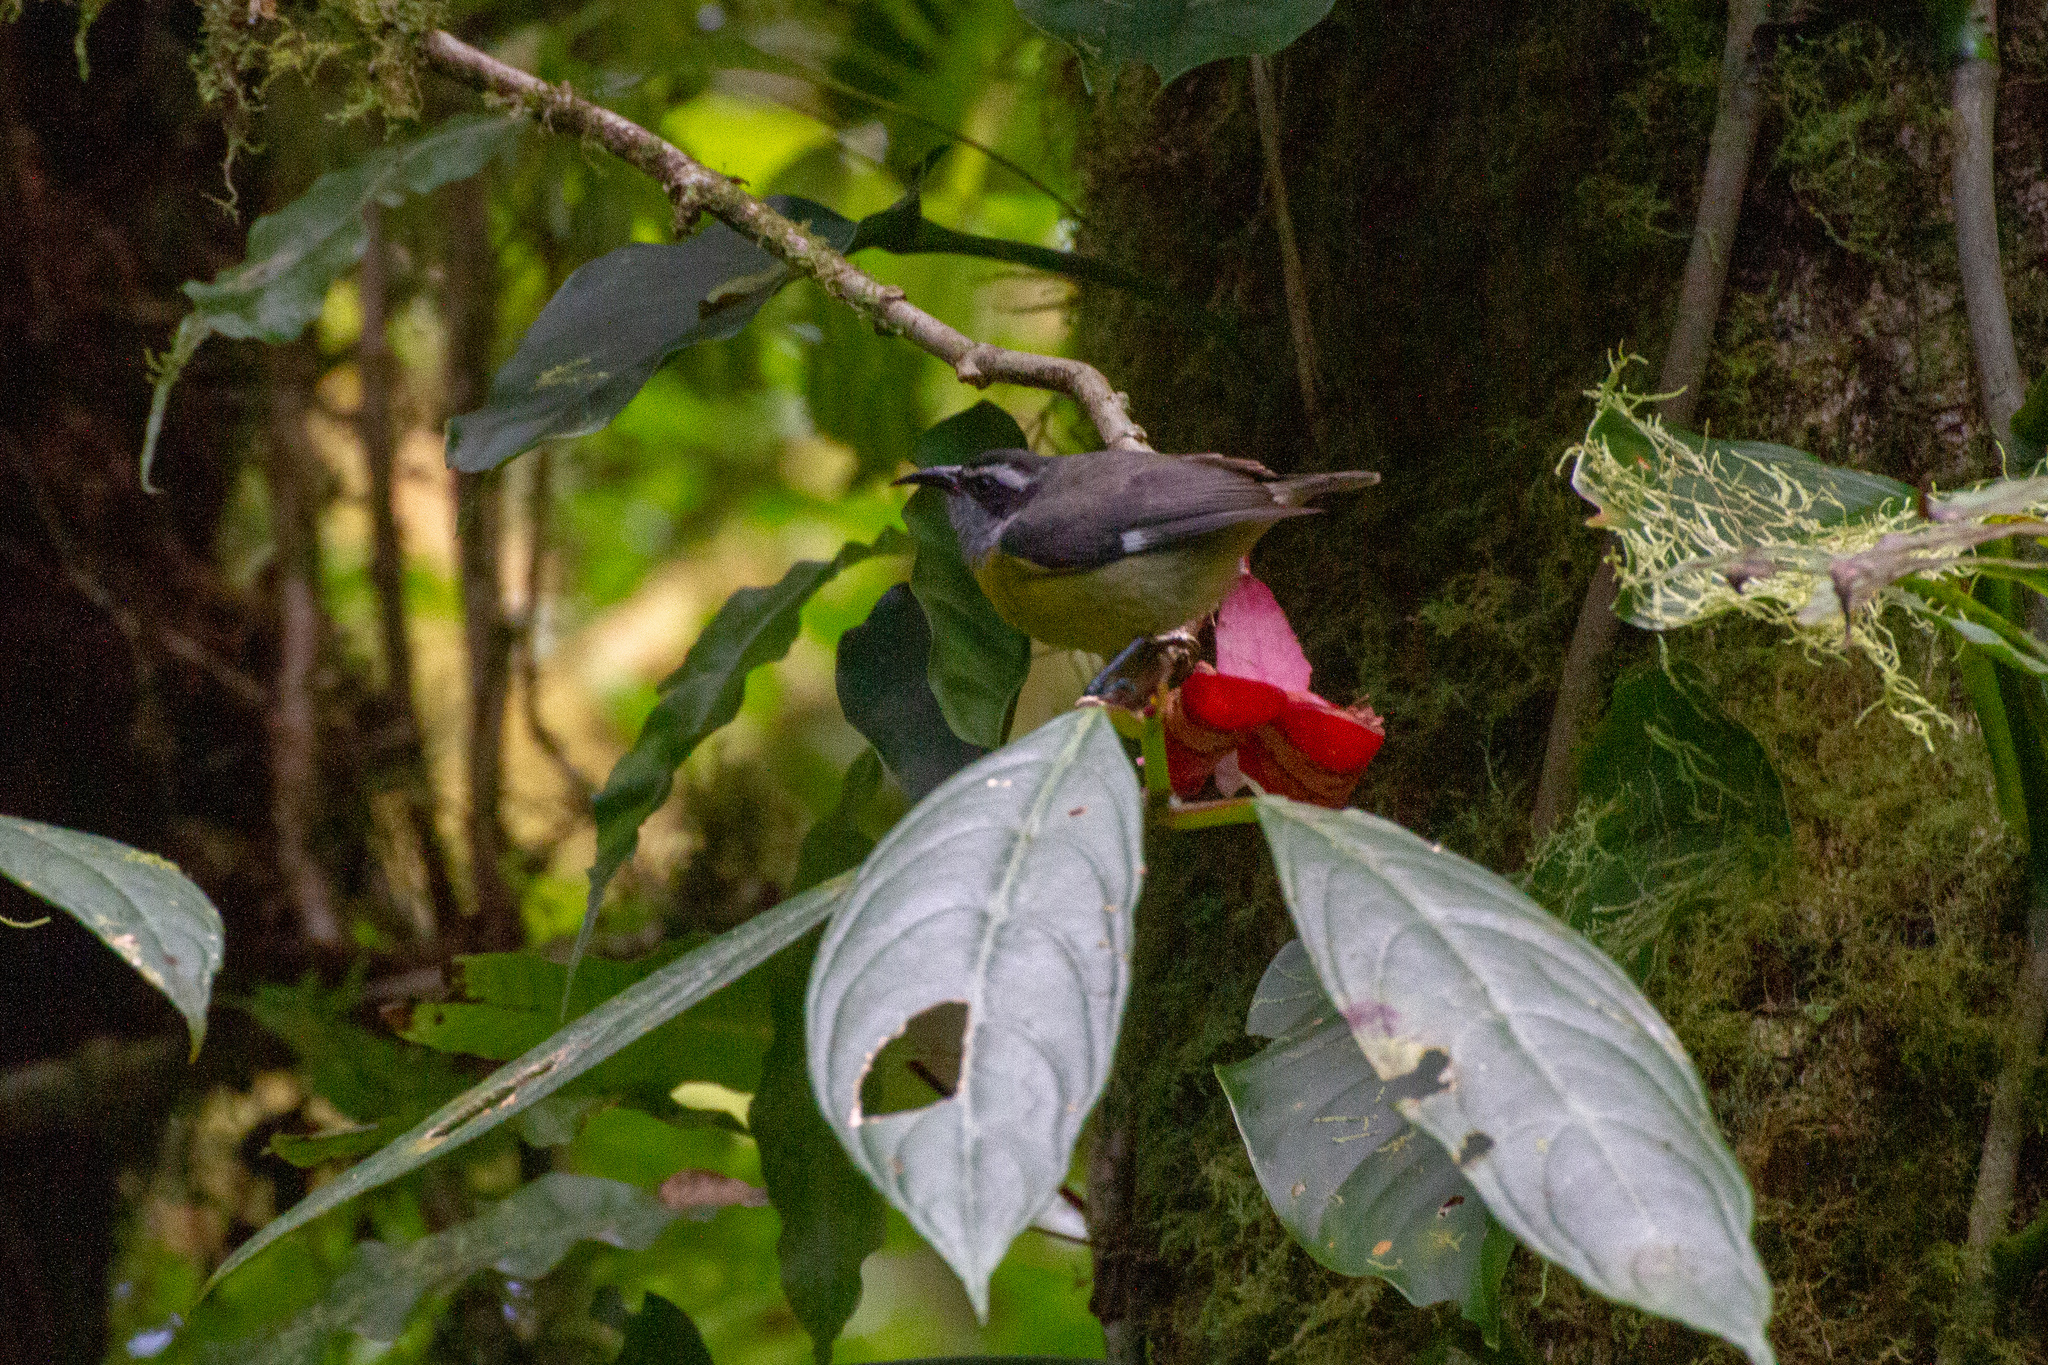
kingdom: Animalia
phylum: Chordata
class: Aves
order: Passeriformes
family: Thraupidae
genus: Coereba
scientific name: Coereba flaveola
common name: Bananaquit
